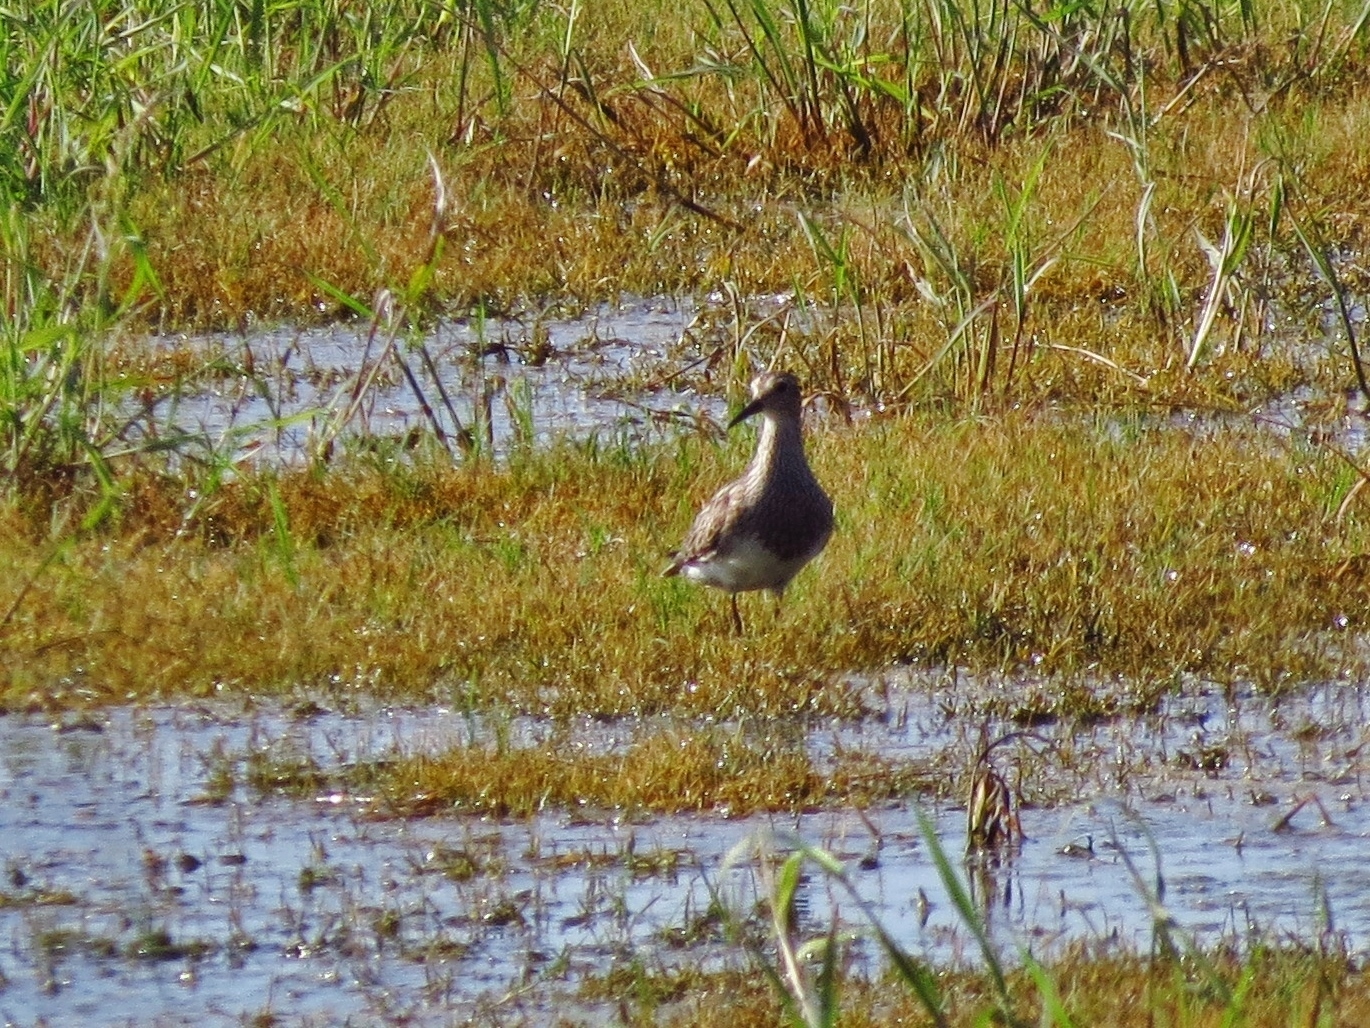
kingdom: Animalia
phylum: Chordata
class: Aves
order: Charadriiformes
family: Scolopacidae
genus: Calidris
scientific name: Calidris melanotos
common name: Pectoral sandpiper
